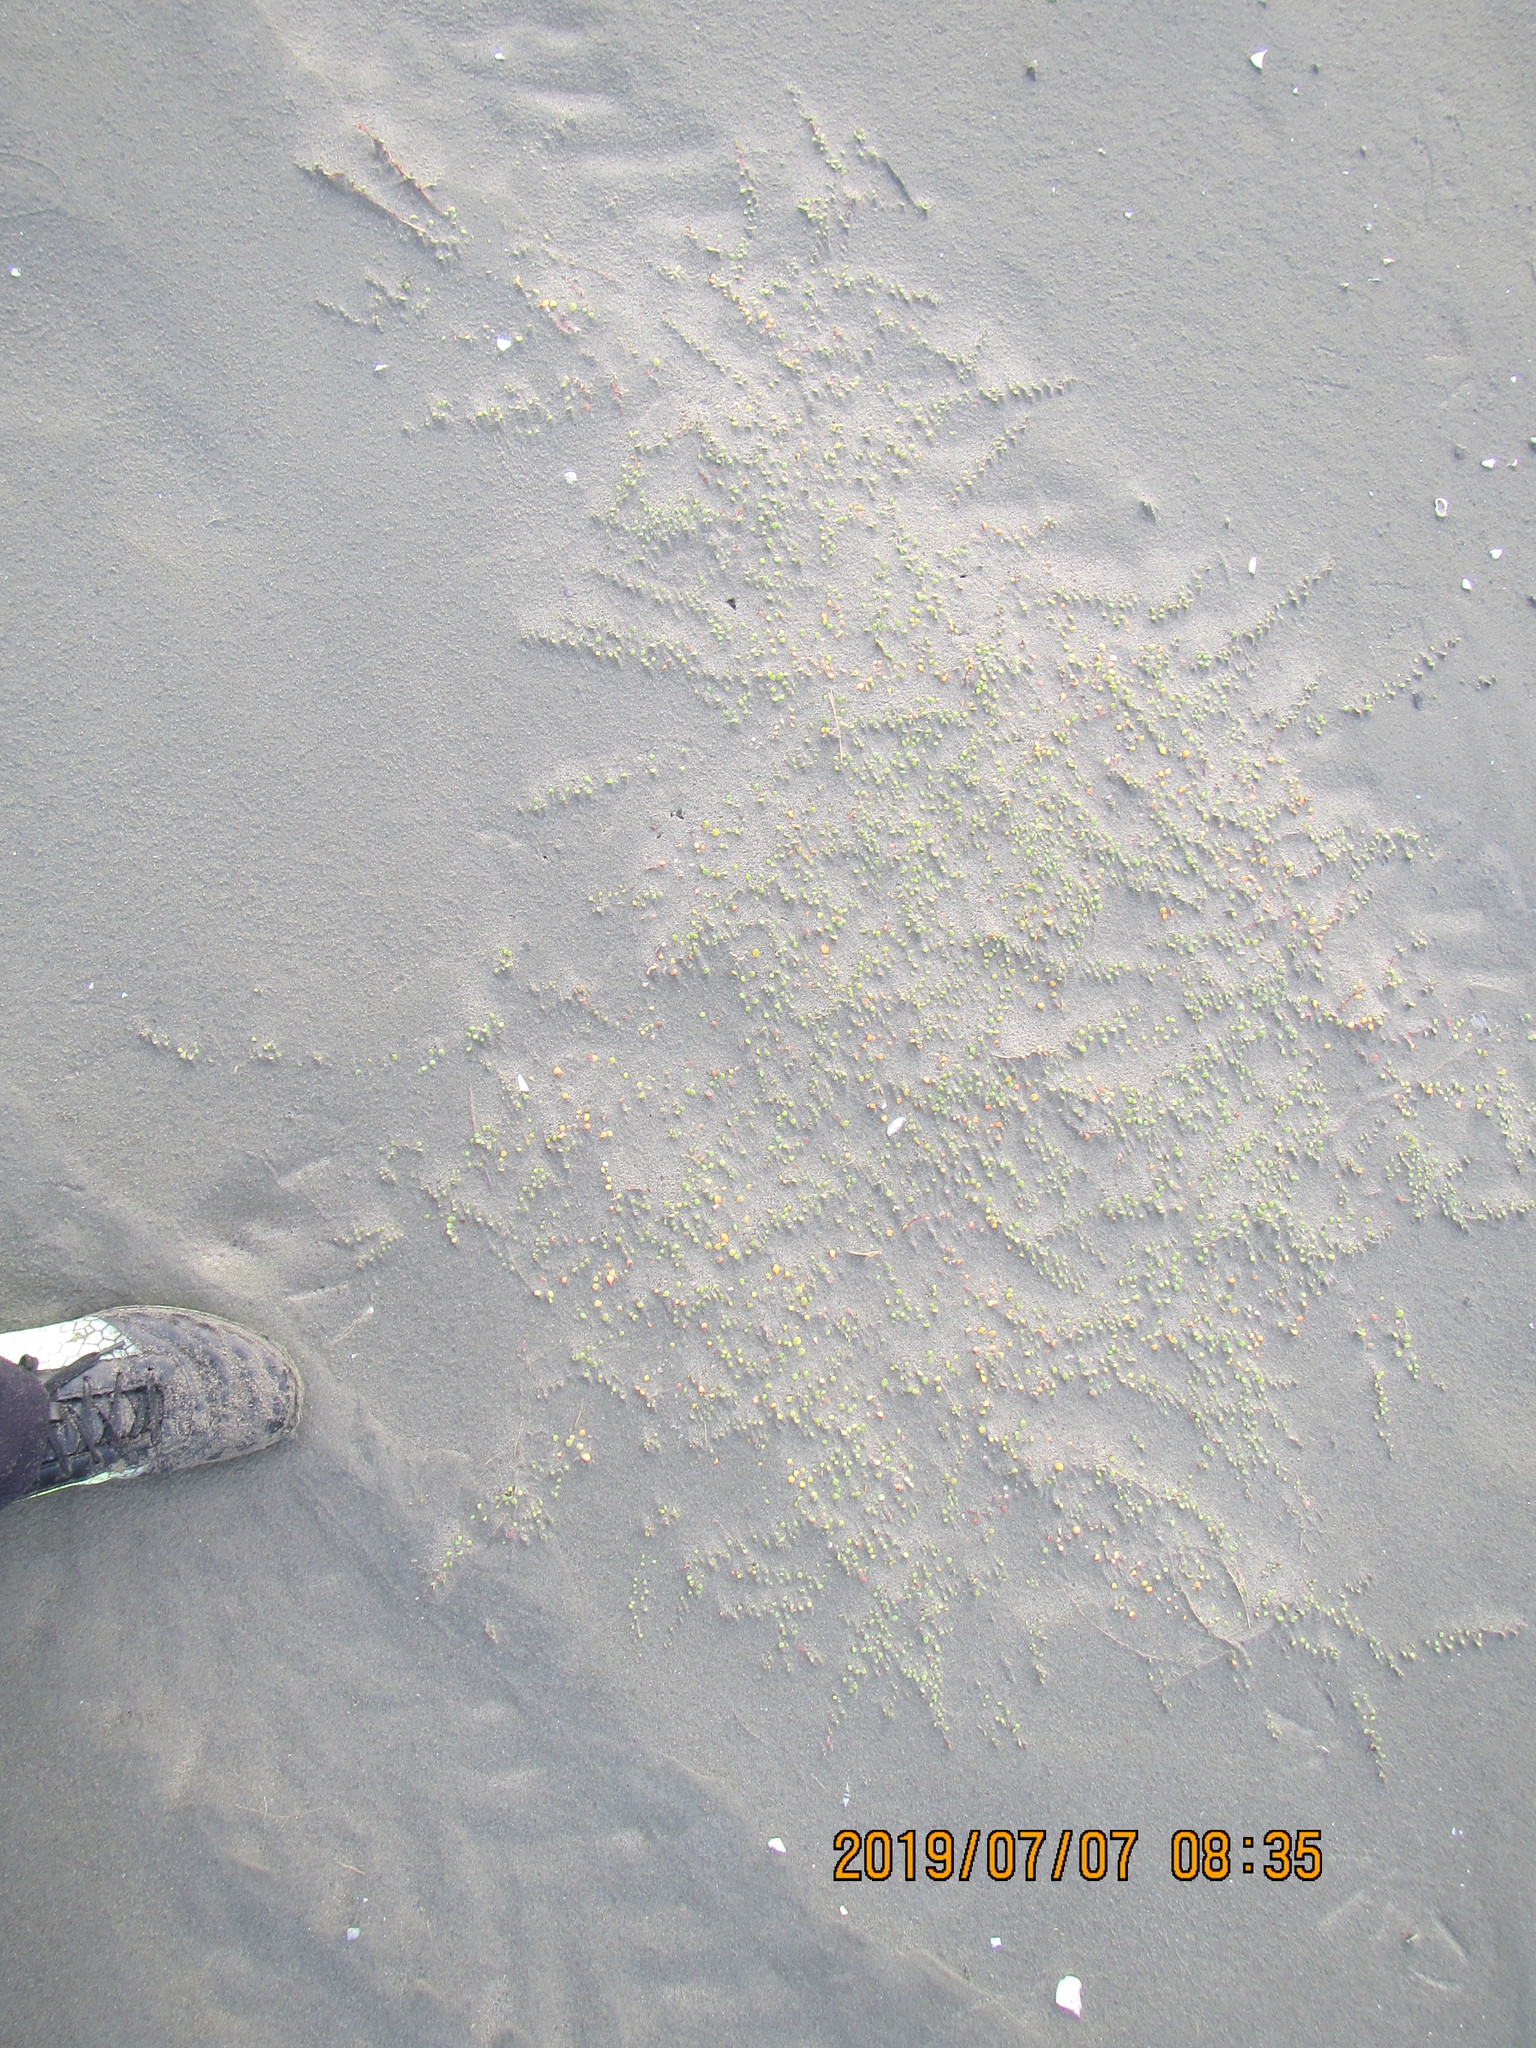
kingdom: Plantae
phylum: Tracheophyta
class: Magnoliopsida
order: Ericales
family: Primulaceae
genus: Samolus
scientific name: Samolus repens
